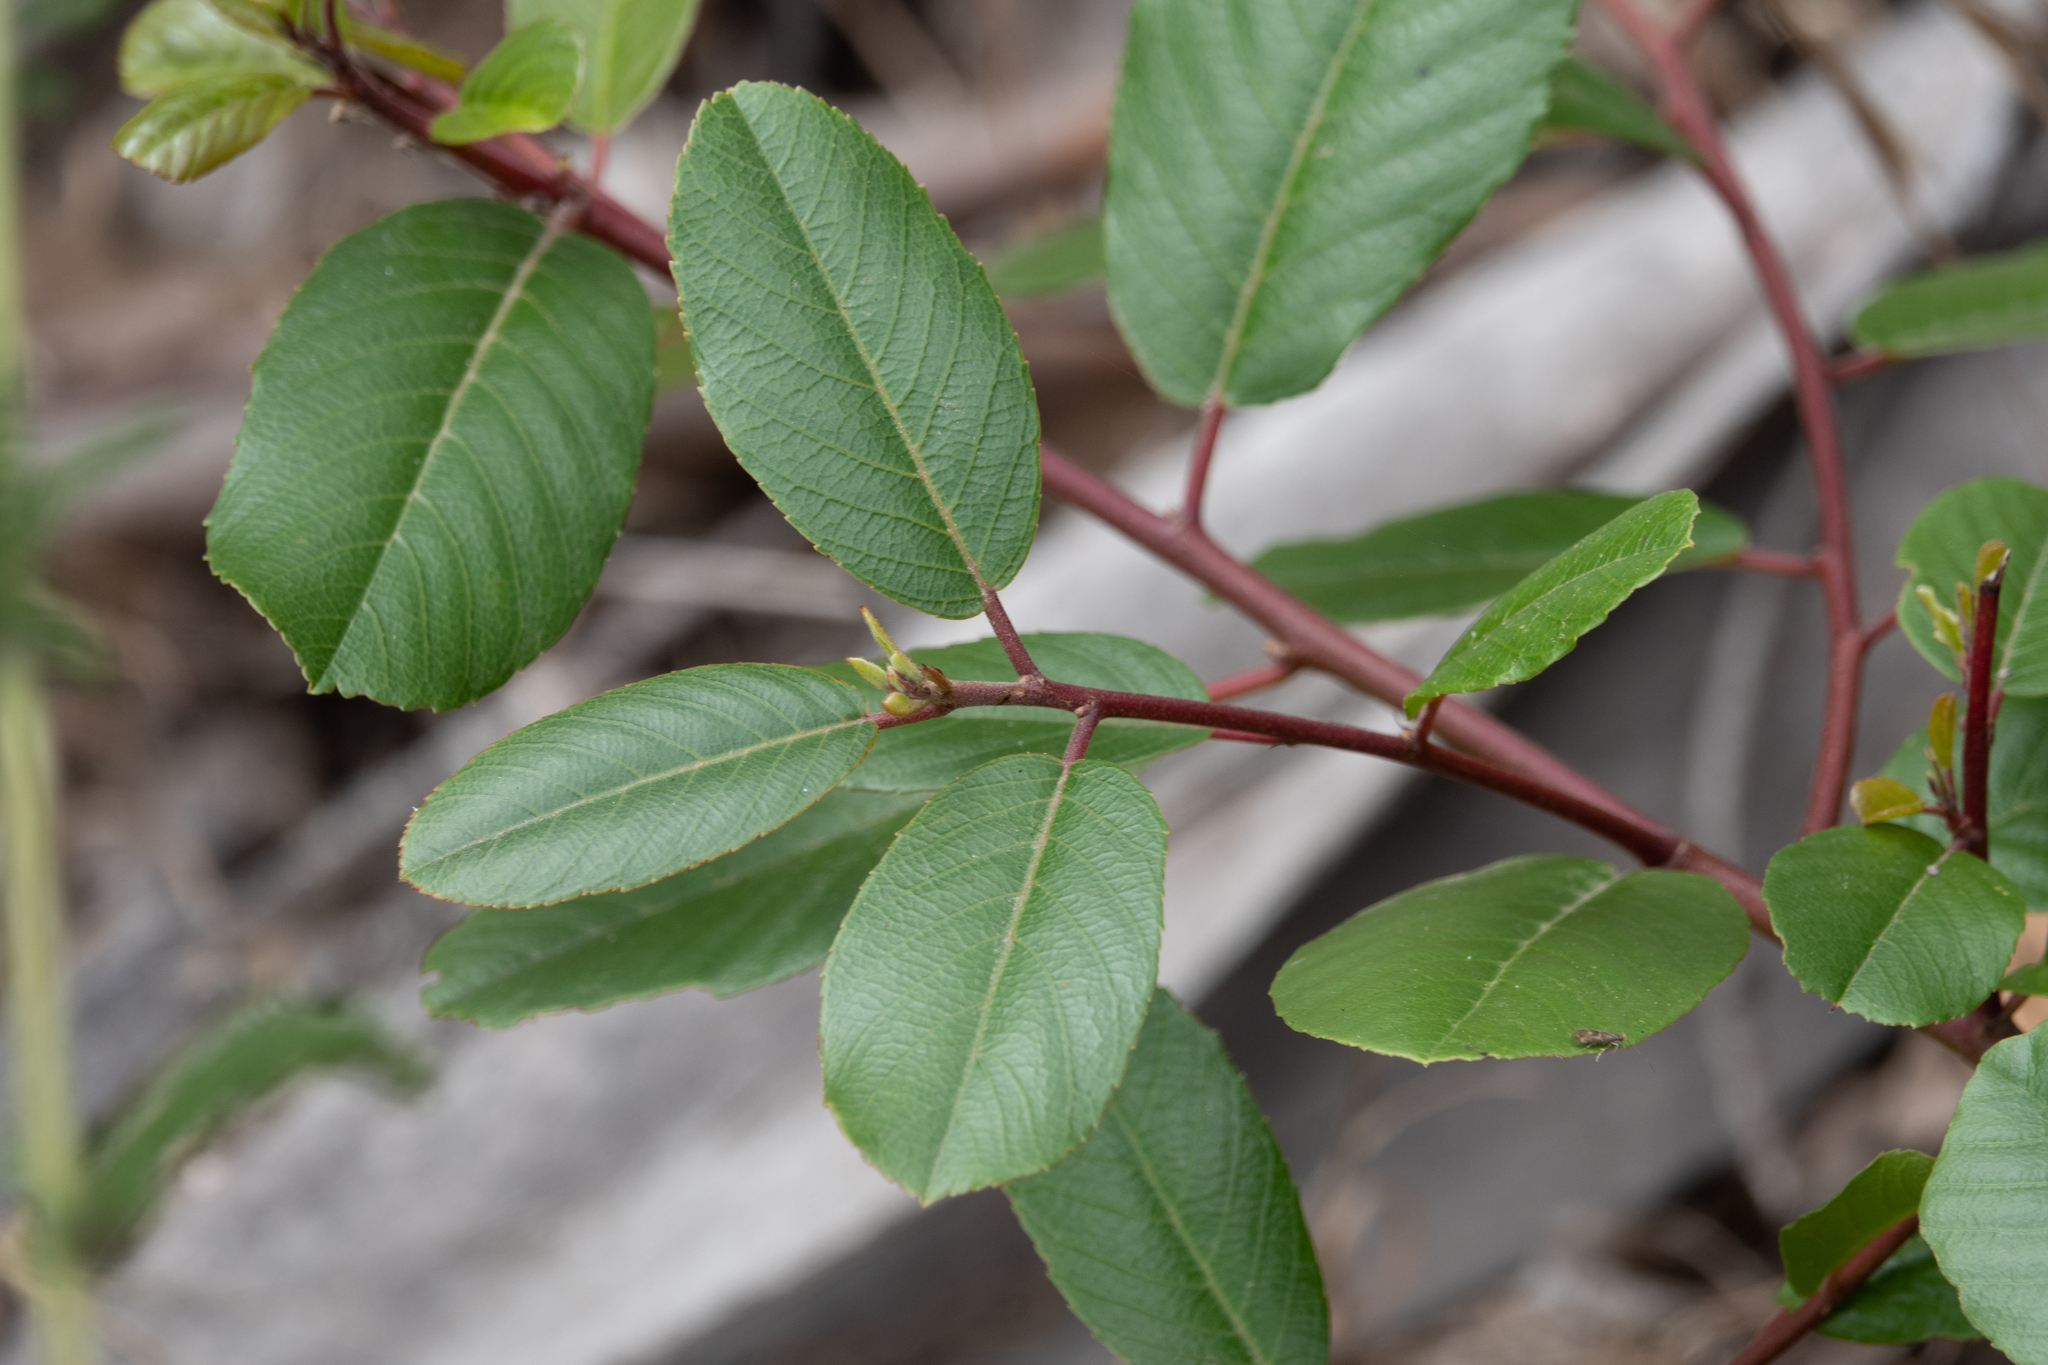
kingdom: Plantae
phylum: Tracheophyta
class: Magnoliopsida
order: Rosales
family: Rhamnaceae
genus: Frangula
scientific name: Frangula californica
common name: California buckthorn
